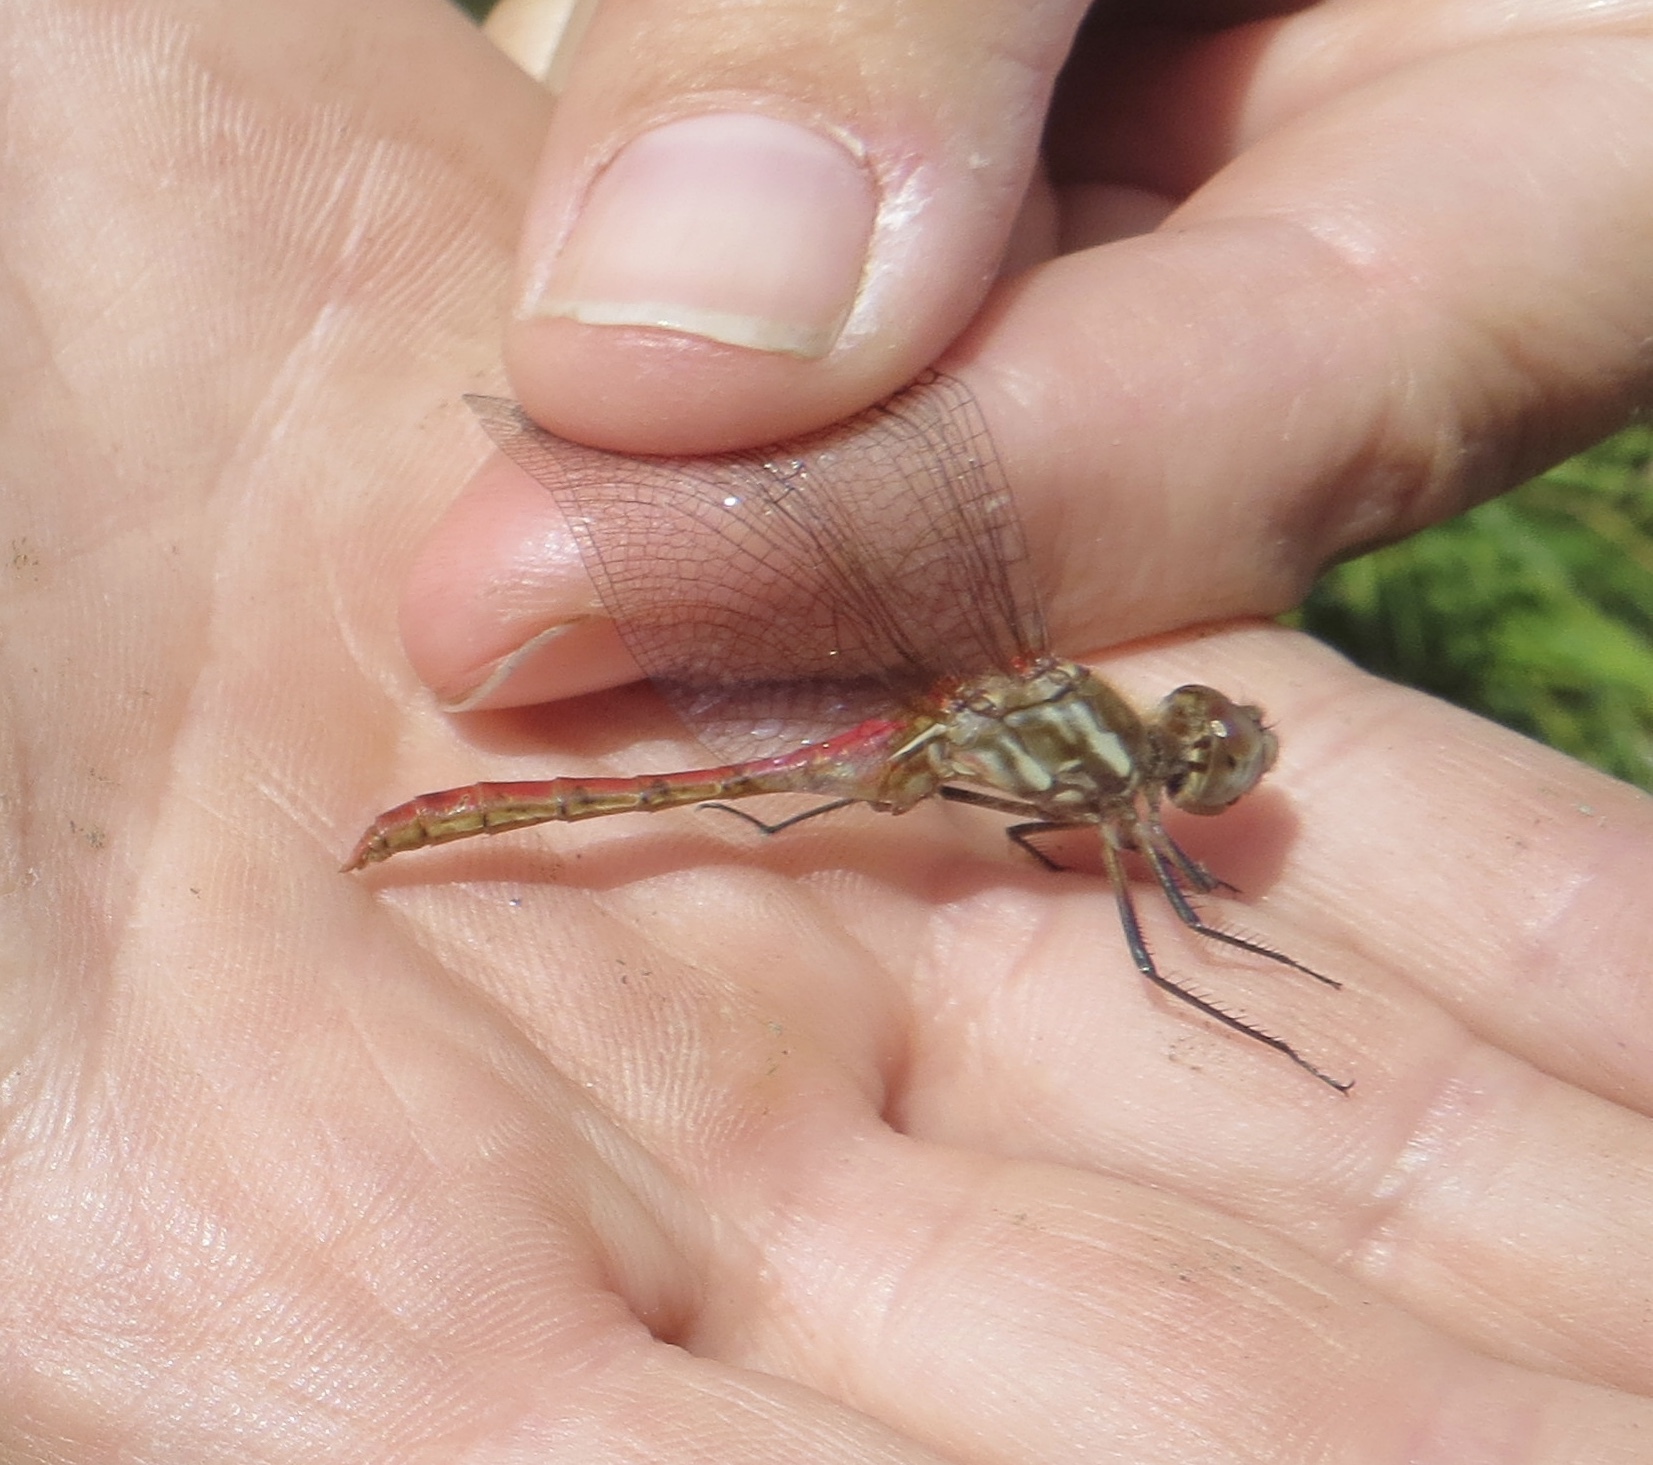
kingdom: Animalia
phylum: Arthropoda
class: Insecta
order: Odonata
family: Libellulidae
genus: Sympetrum
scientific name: Sympetrum pallipes
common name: Striped meadowhawk
